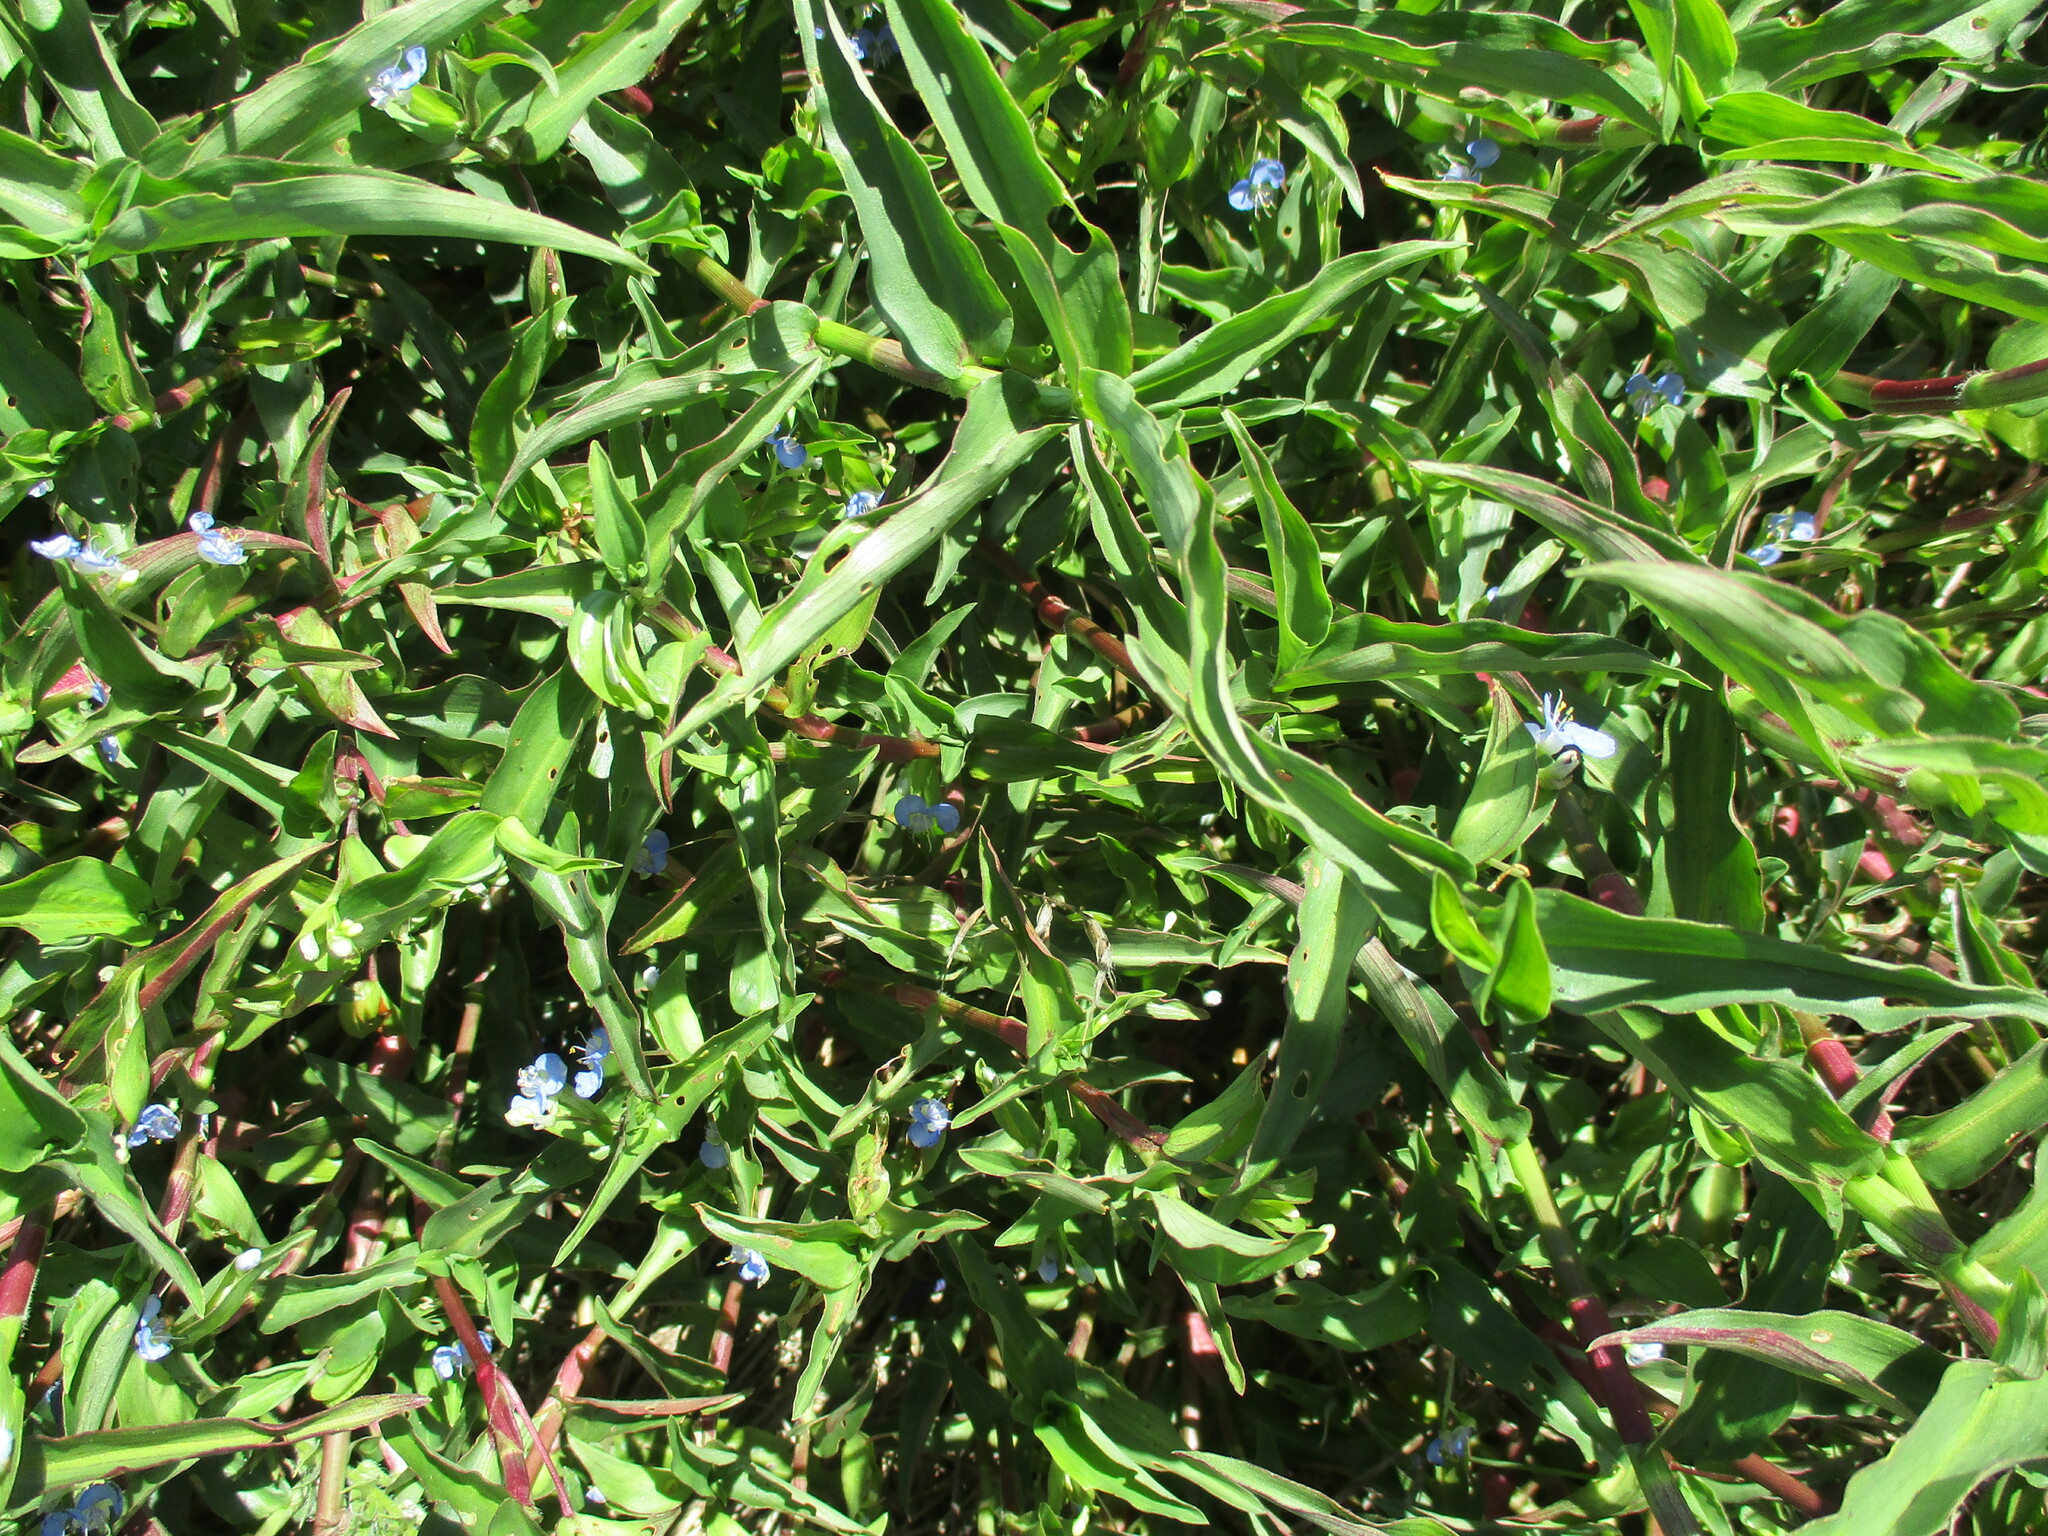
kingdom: Plantae
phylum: Tracheophyta
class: Liliopsida
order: Commelinales
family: Commelinaceae
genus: Commelina
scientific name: Commelina diffusa
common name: Climbing dayflower
